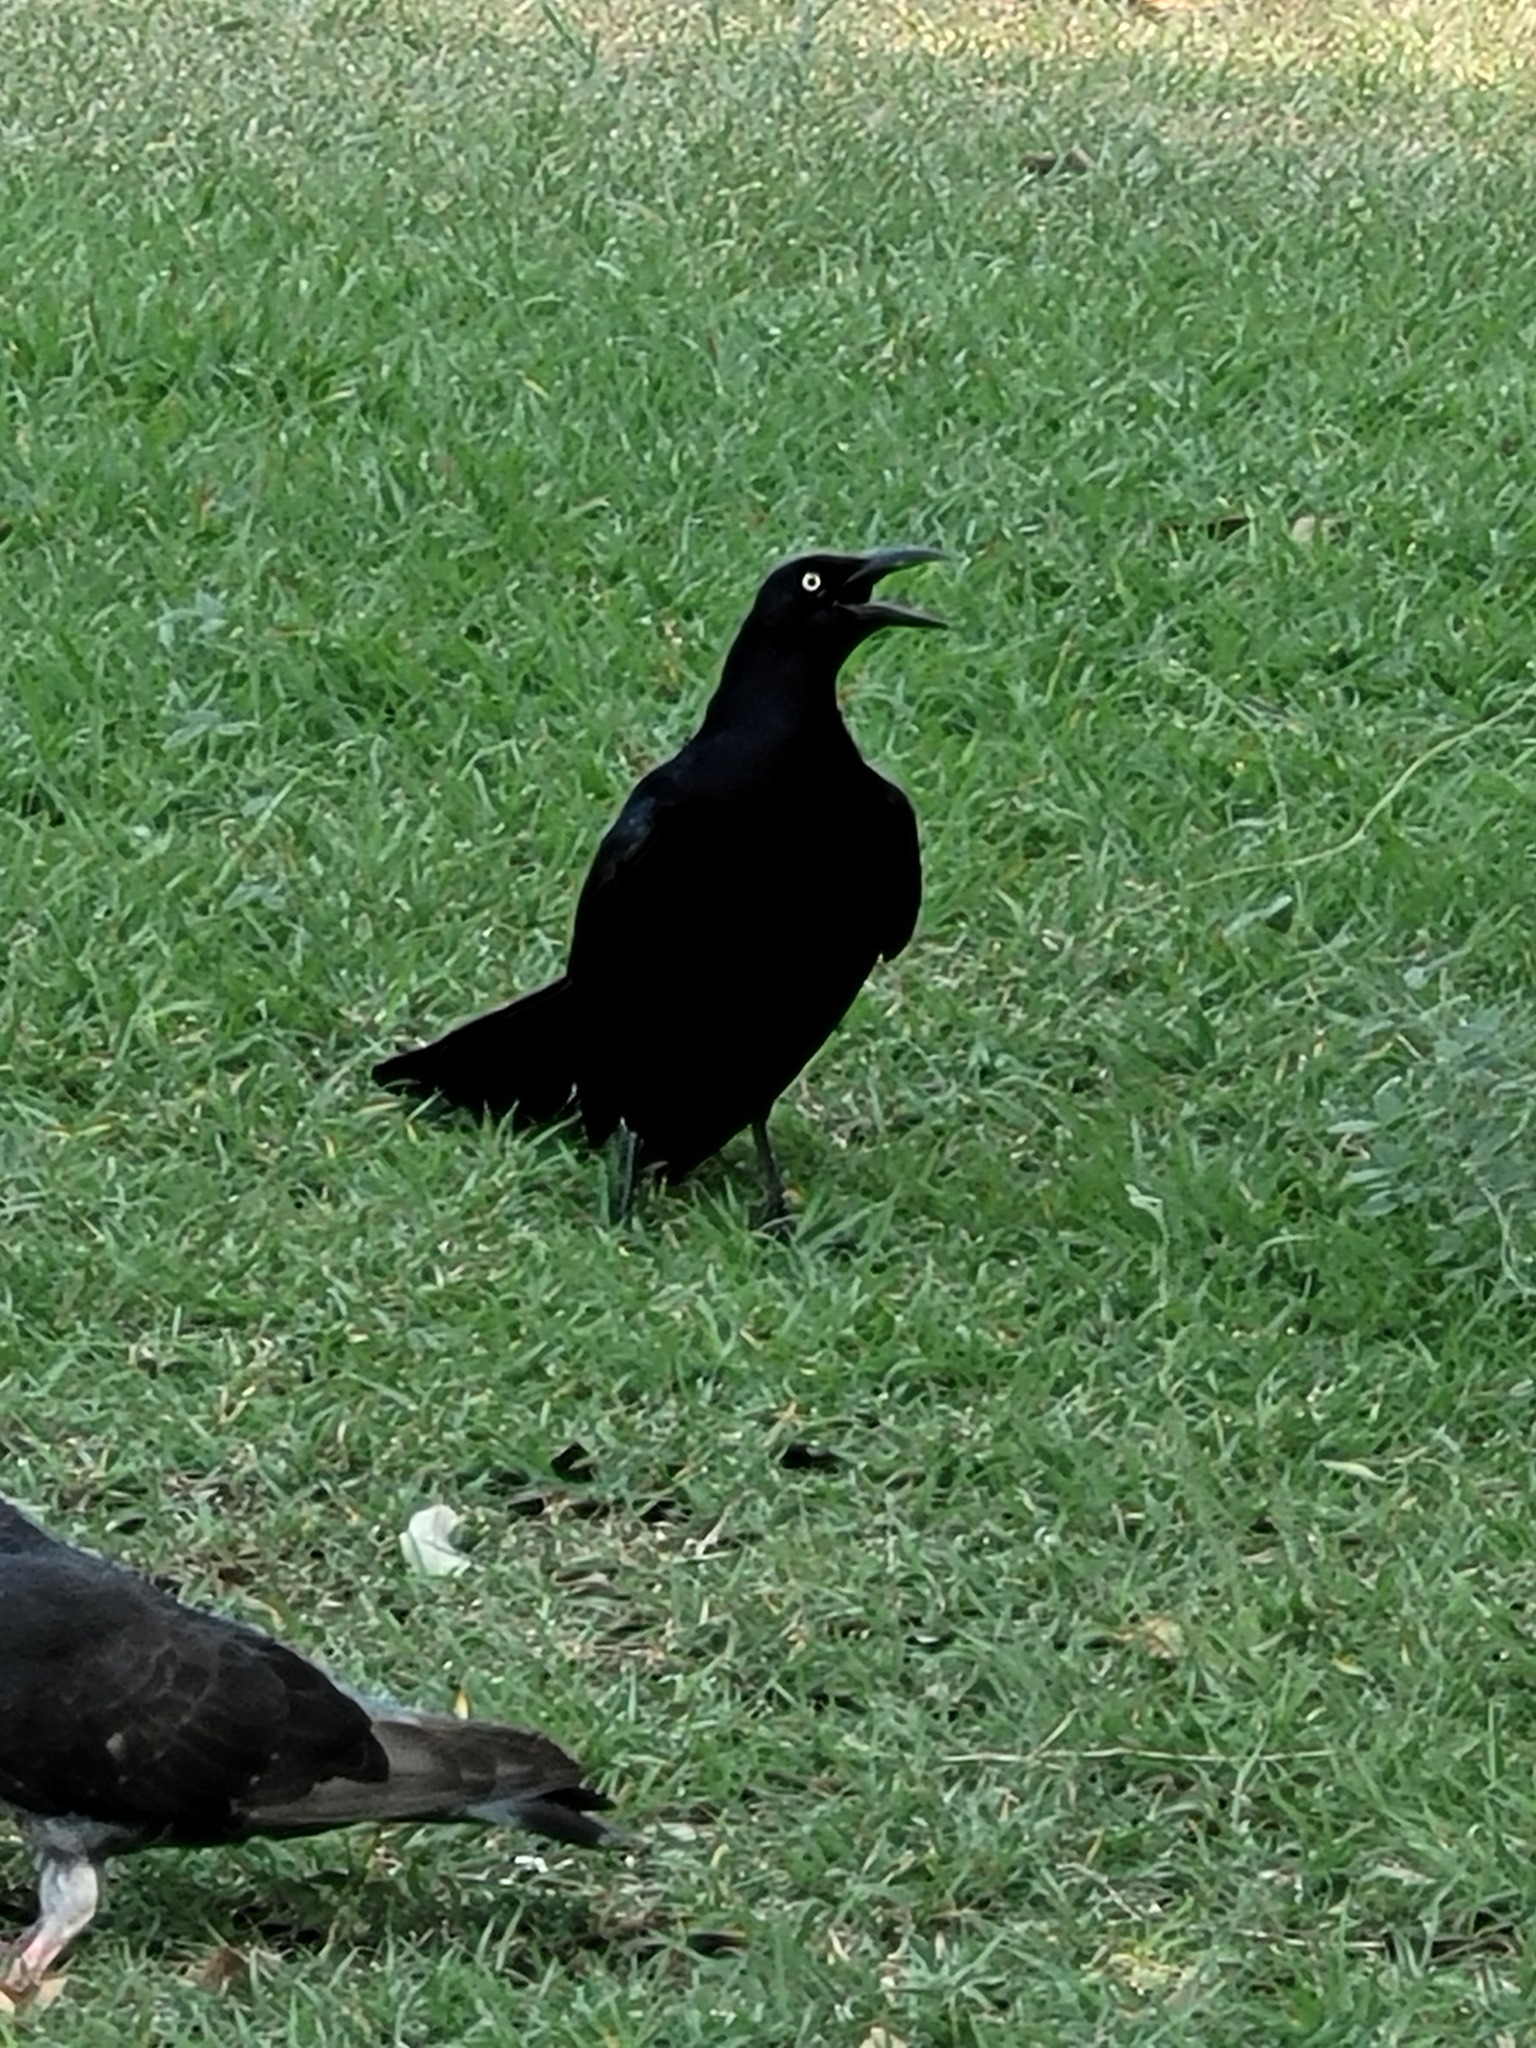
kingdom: Animalia
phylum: Chordata
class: Aves
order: Passeriformes
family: Icteridae
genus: Quiscalus
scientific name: Quiscalus mexicanus
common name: Great-tailed grackle
